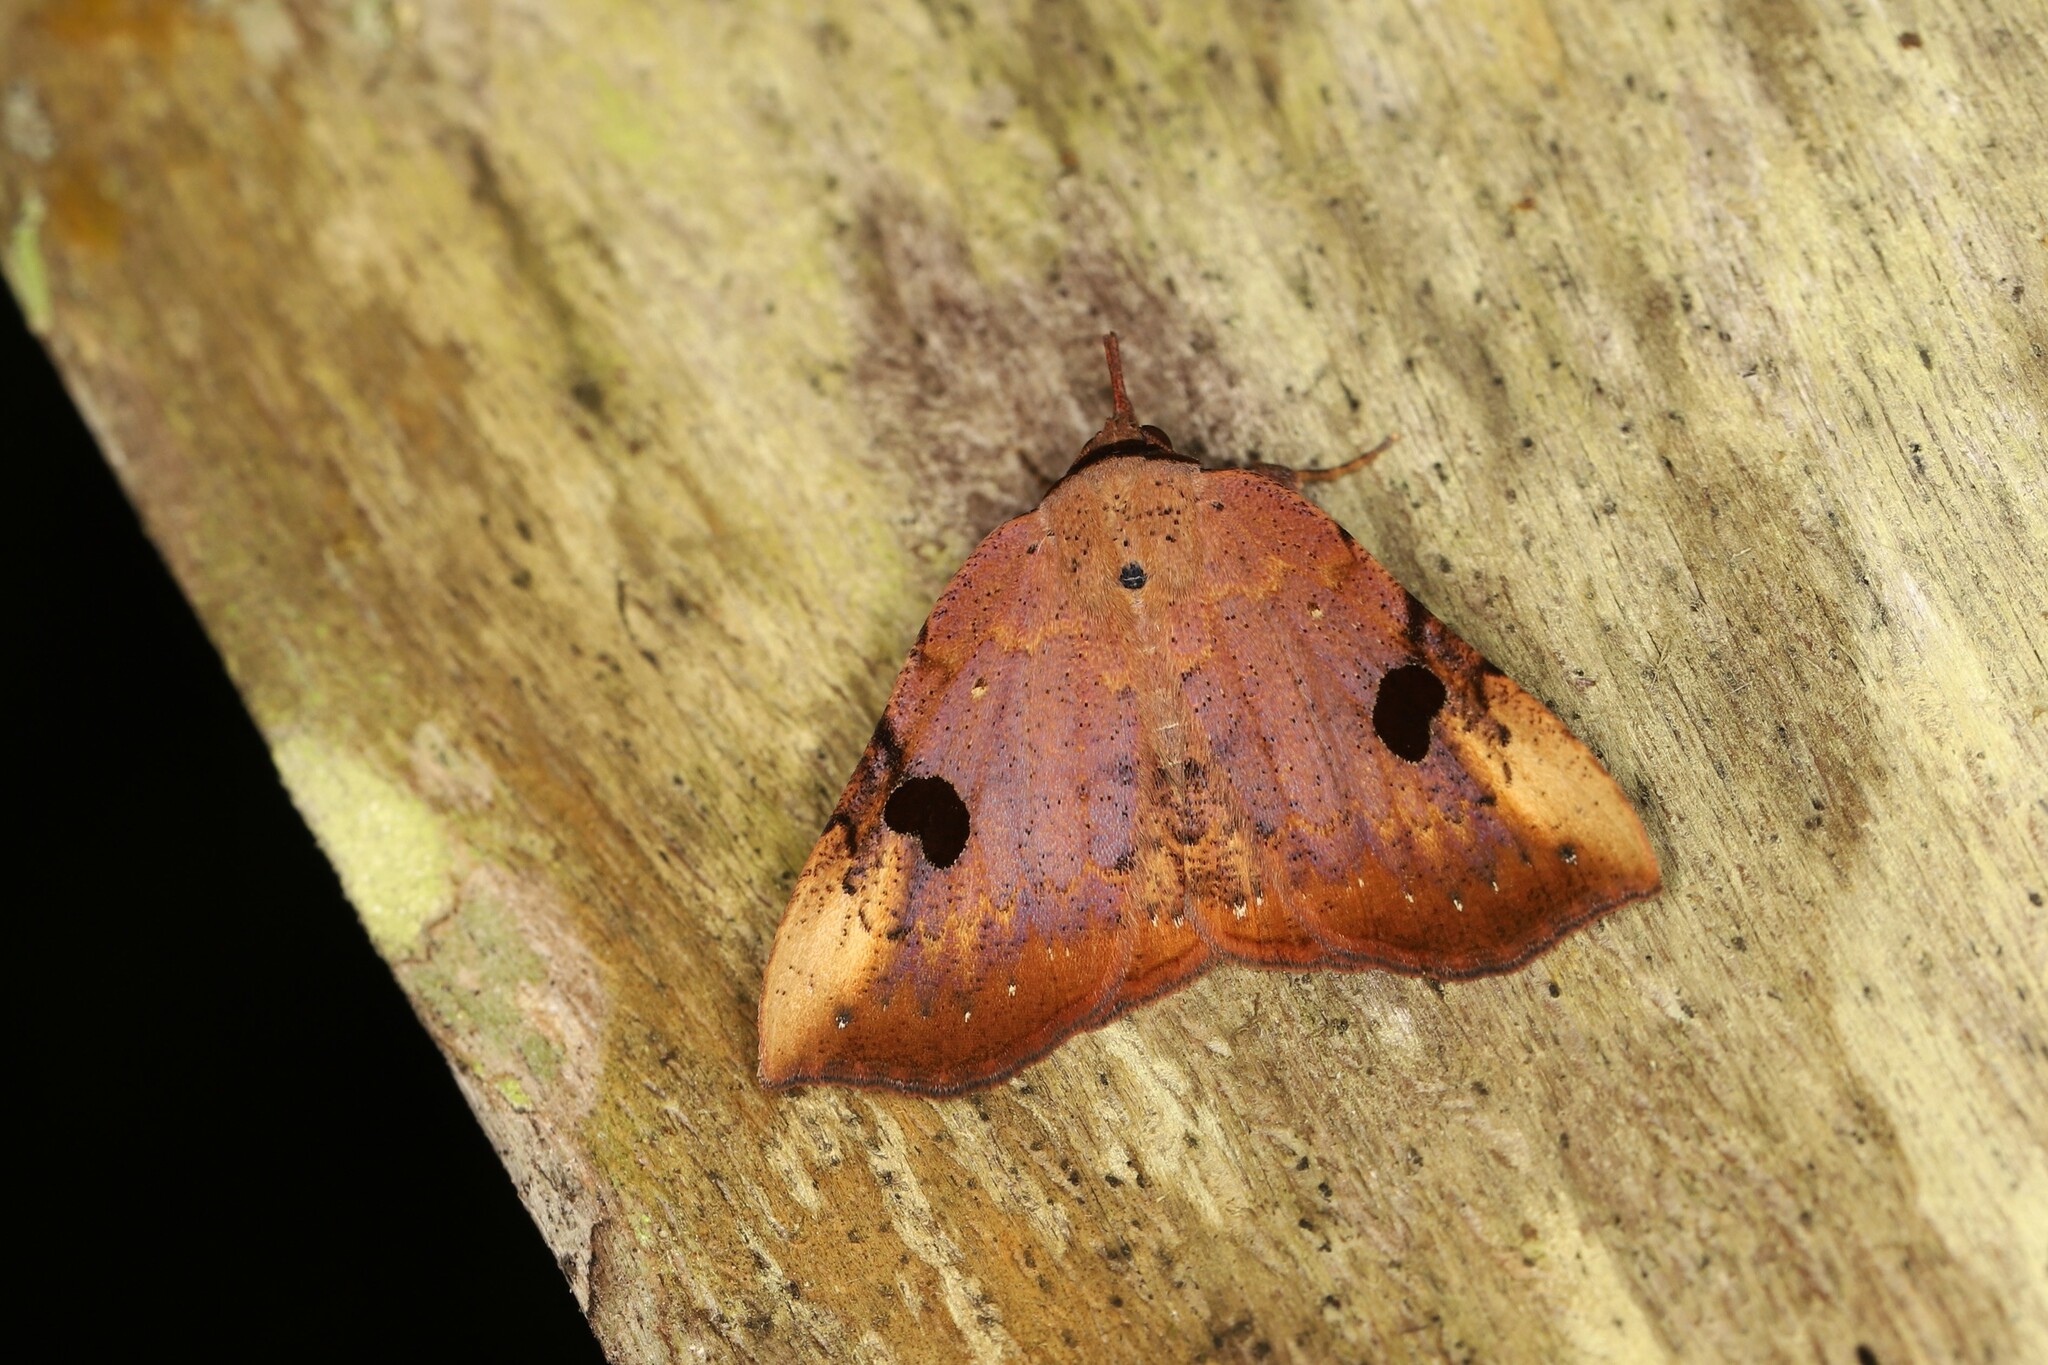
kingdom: Animalia
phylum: Arthropoda
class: Insecta
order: Lepidoptera
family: Erebidae
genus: Saserna
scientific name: Saserna irrorata
